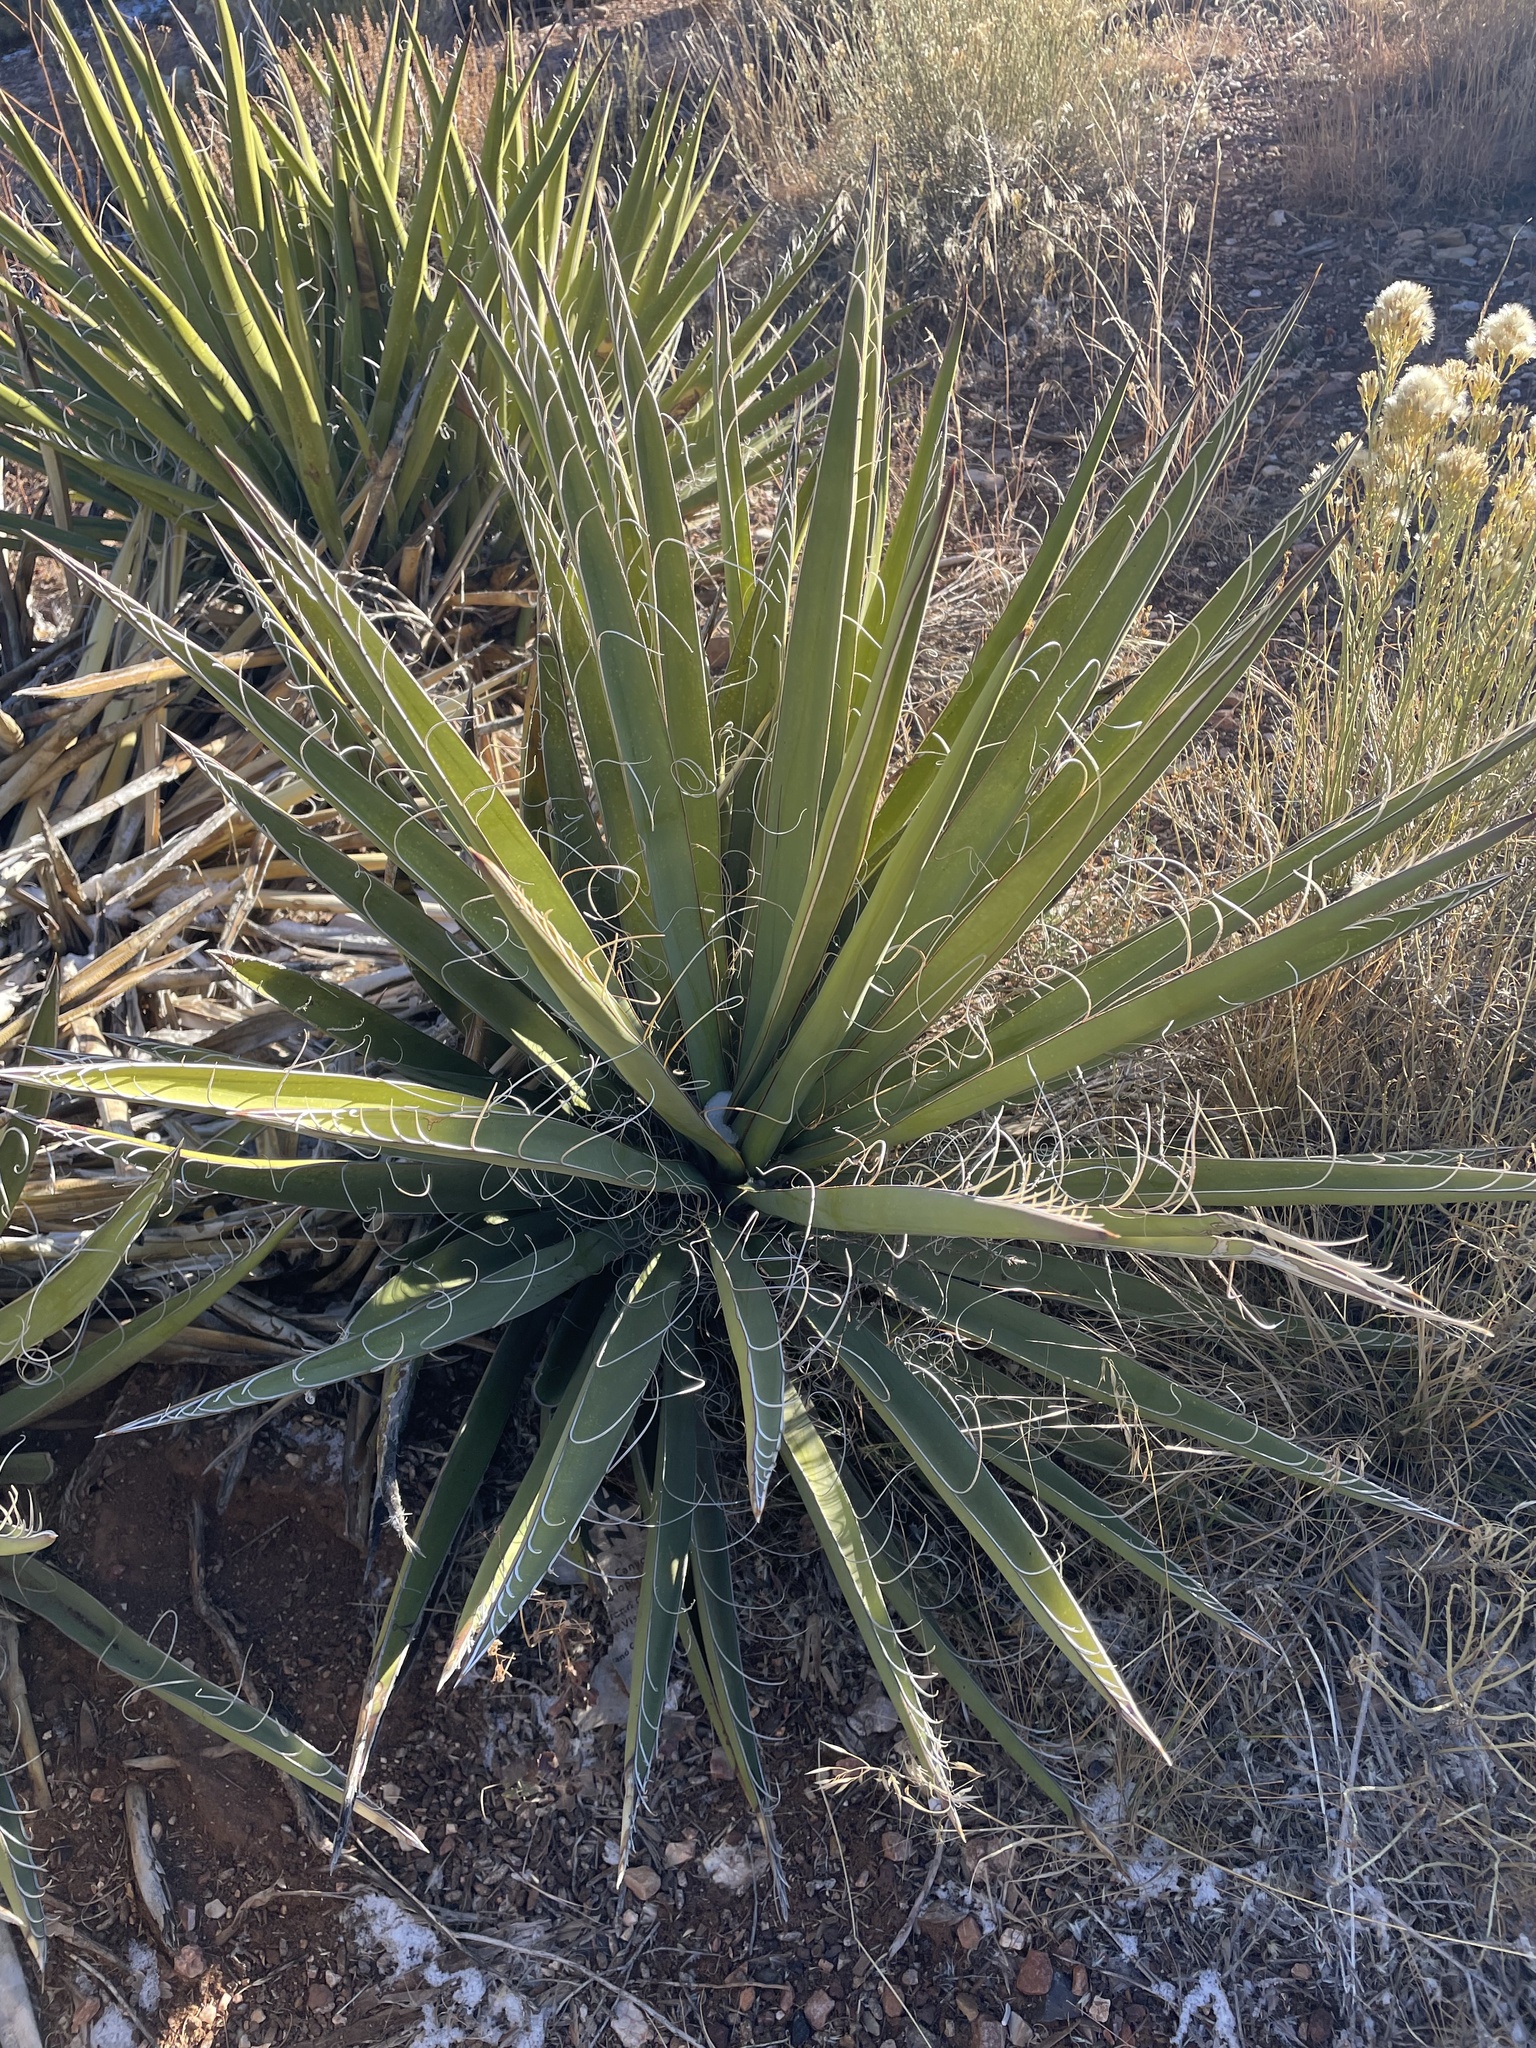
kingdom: Plantae
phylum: Tracheophyta
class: Liliopsida
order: Asparagales
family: Asparagaceae
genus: Yucca
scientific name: Yucca baccata
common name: Banana yucca
